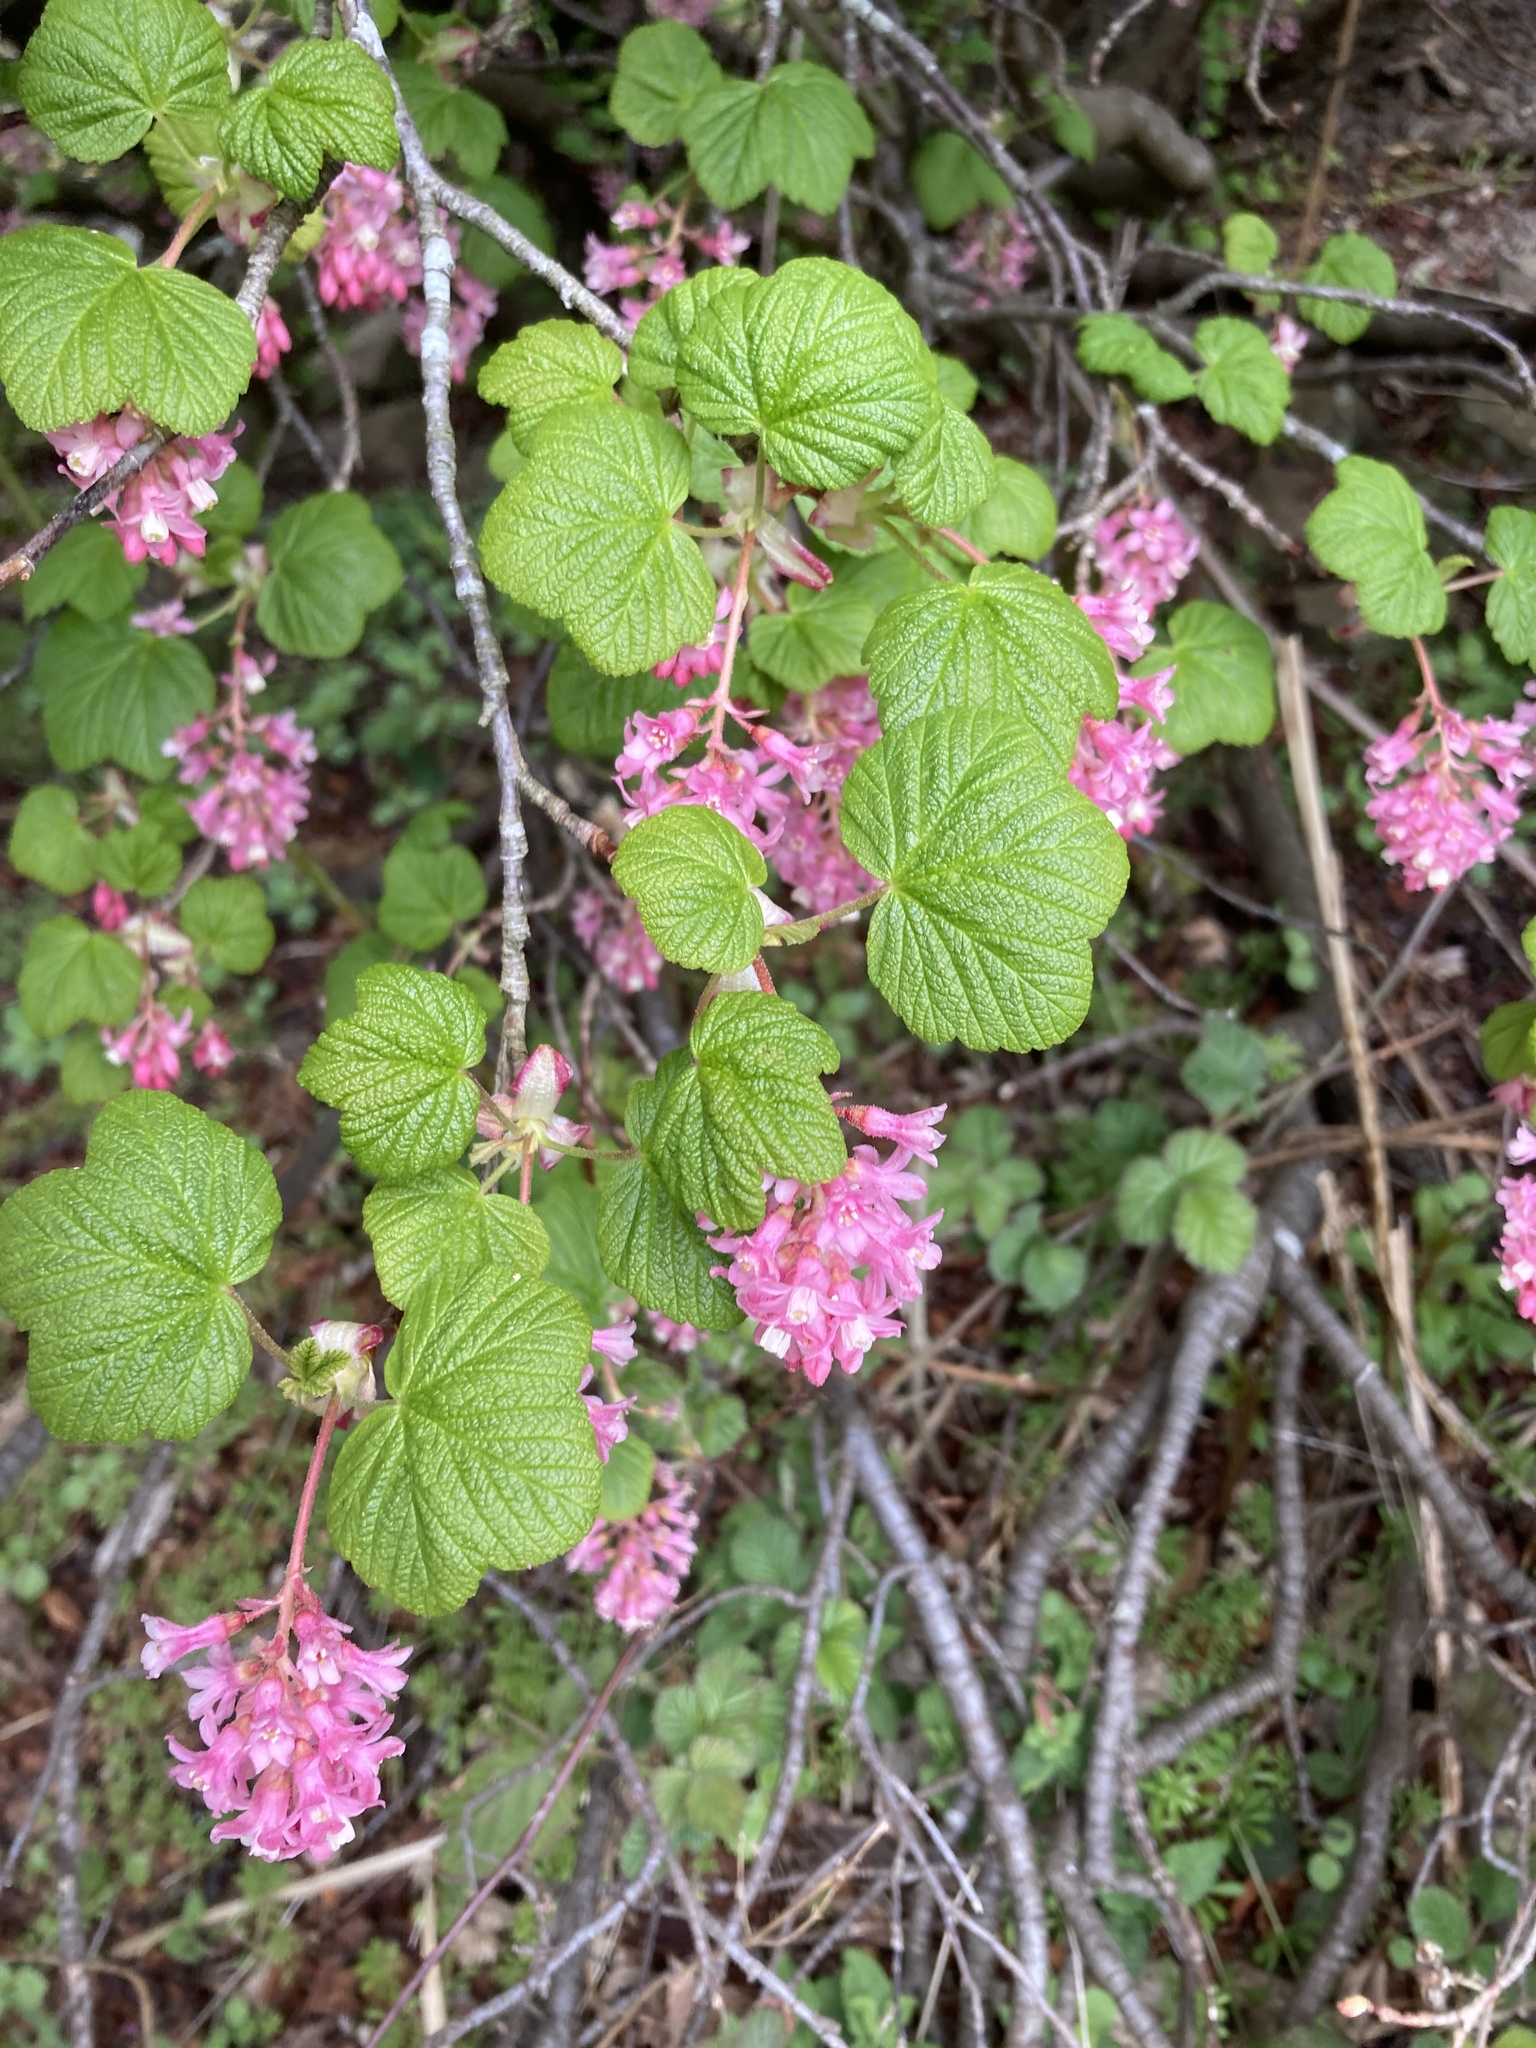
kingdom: Plantae
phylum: Tracheophyta
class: Magnoliopsida
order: Saxifragales
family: Grossulariaceae
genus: Ribes
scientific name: Ribes sanguineum
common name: Flowering currant
